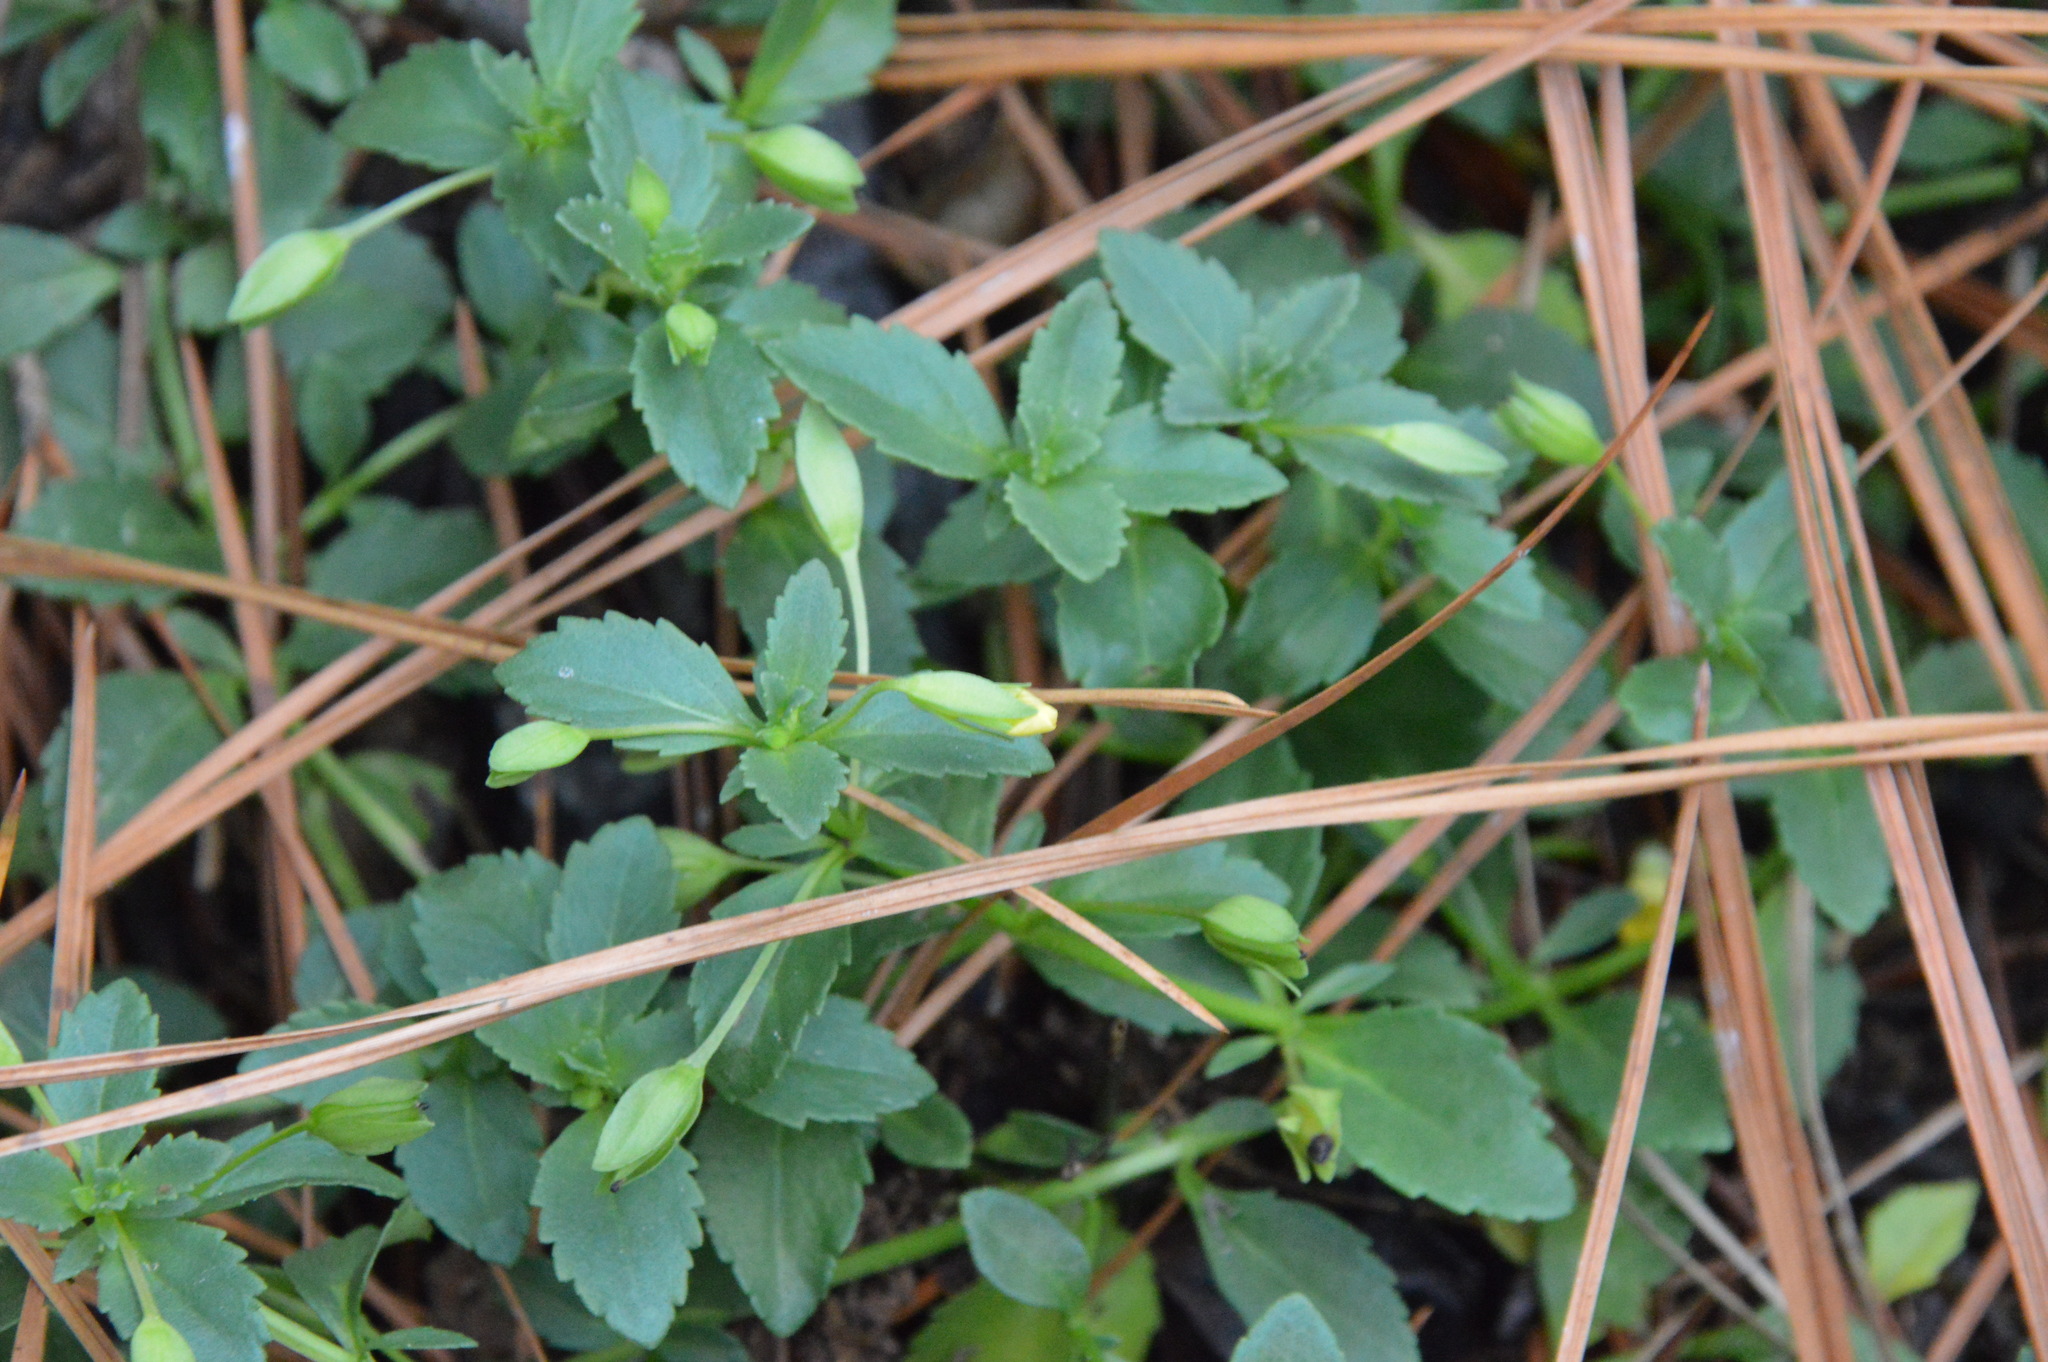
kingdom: Plantae
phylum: Tracheophyta
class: Magnoliopsida
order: Lamiales
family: Plantaginaceae
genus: Mecardonia
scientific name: Mecardonia procumbens
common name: Baby jump-up
